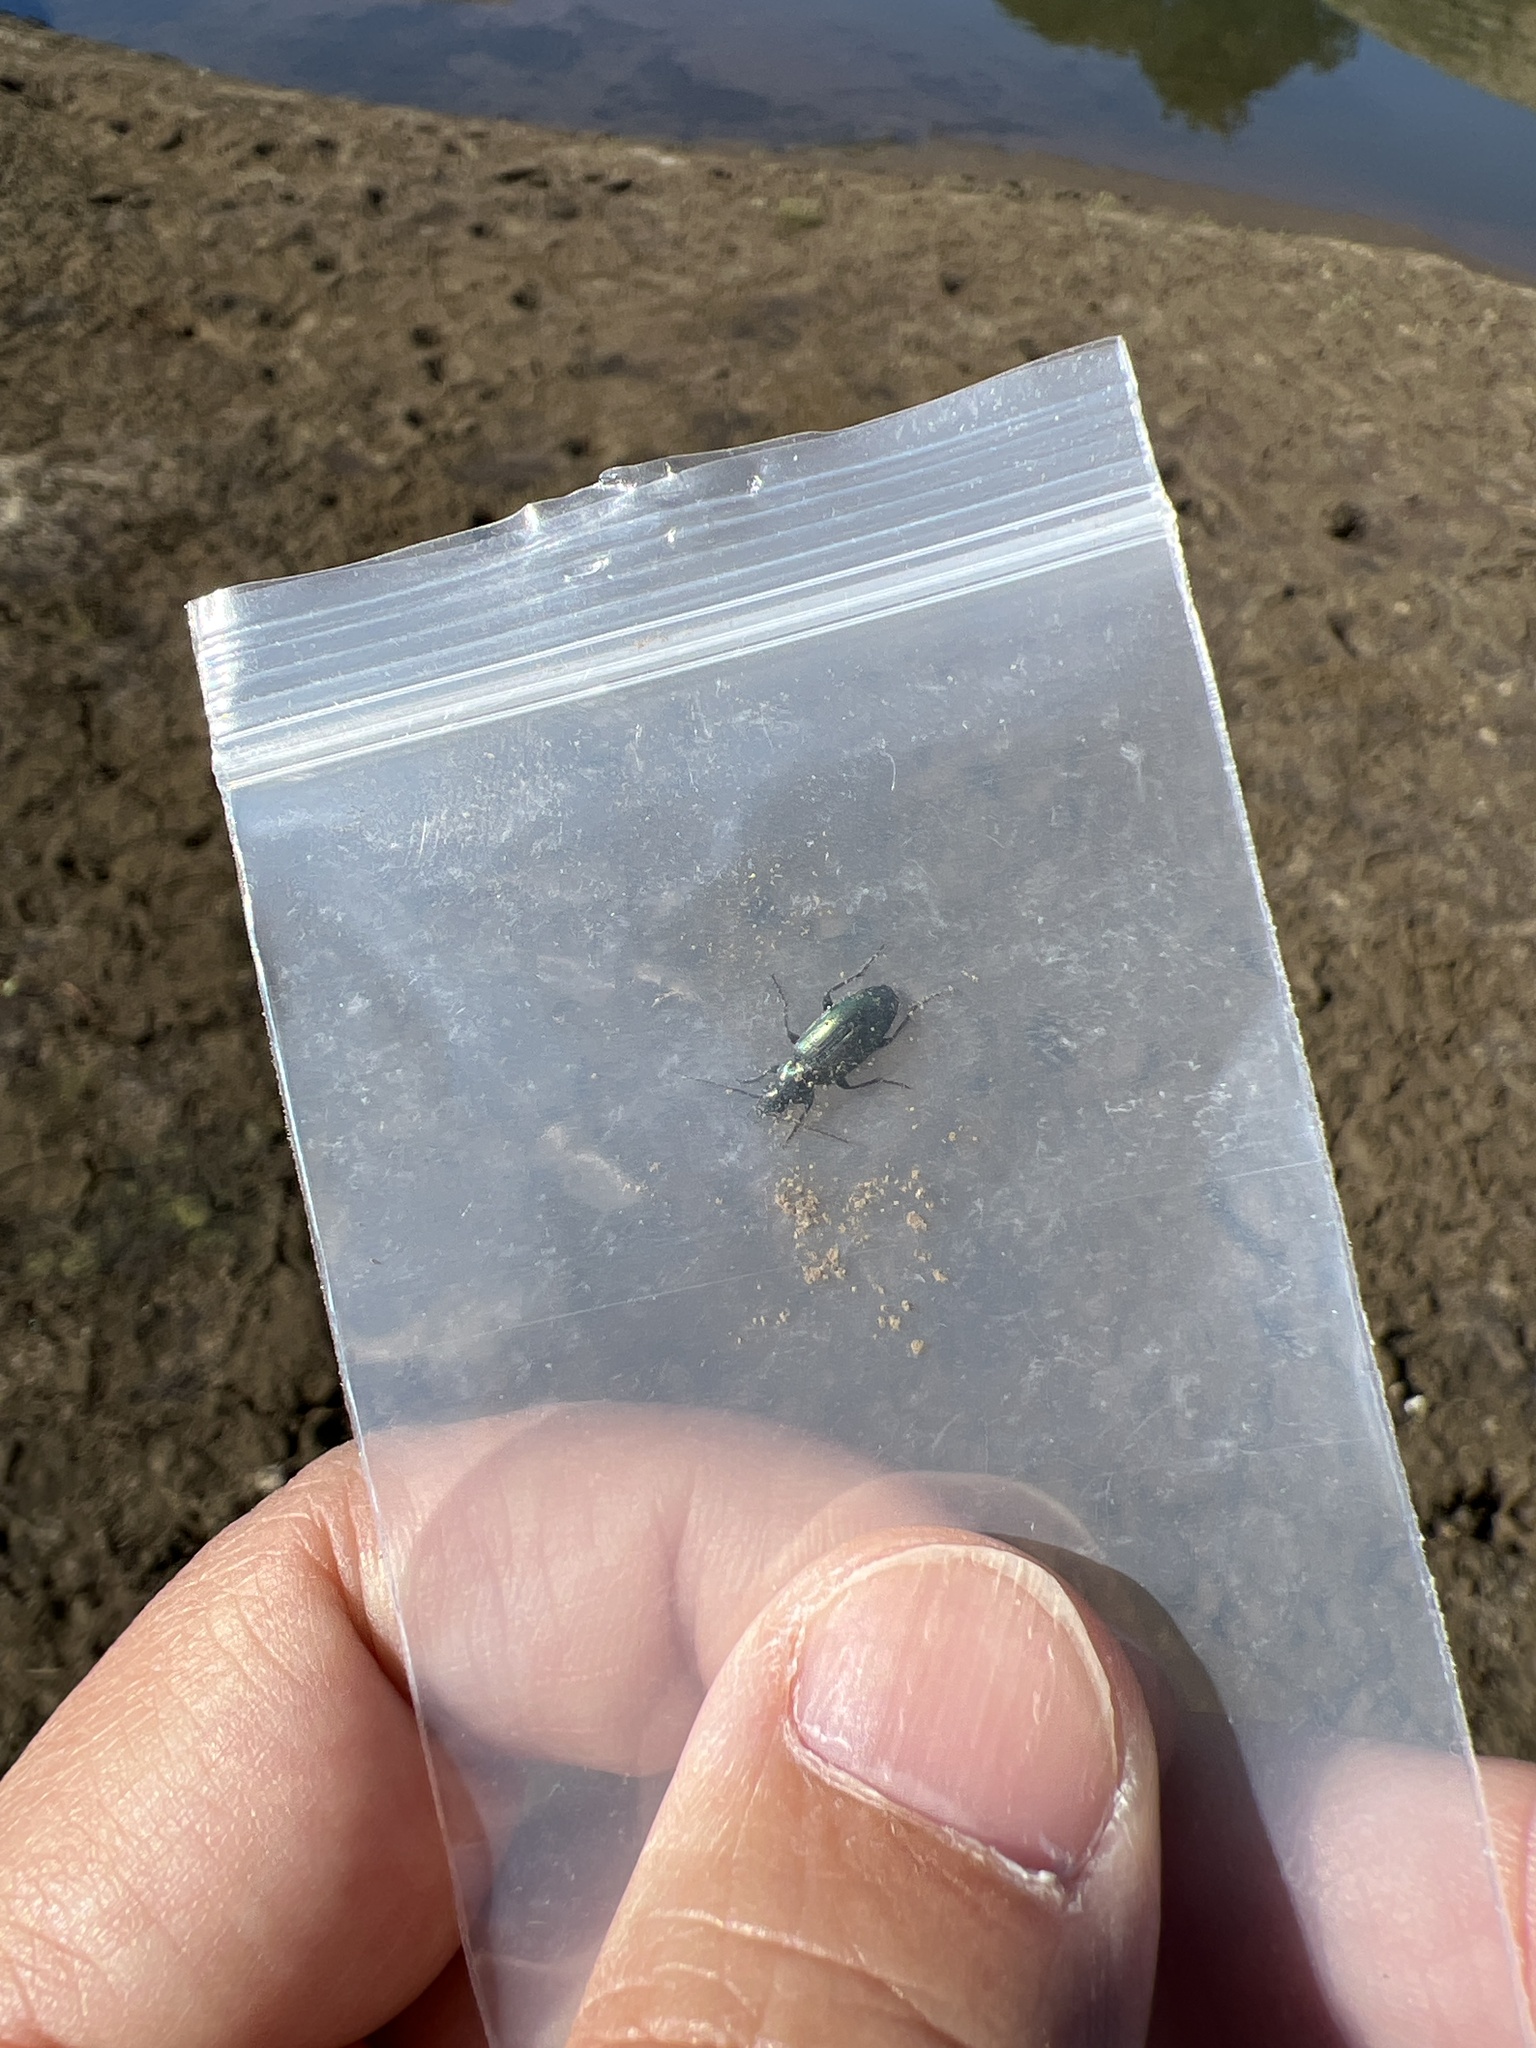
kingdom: Animalia
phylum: Arthropoda
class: Insecta
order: Coleoptera
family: Carabidae
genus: Agonum
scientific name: Agonum suturale
